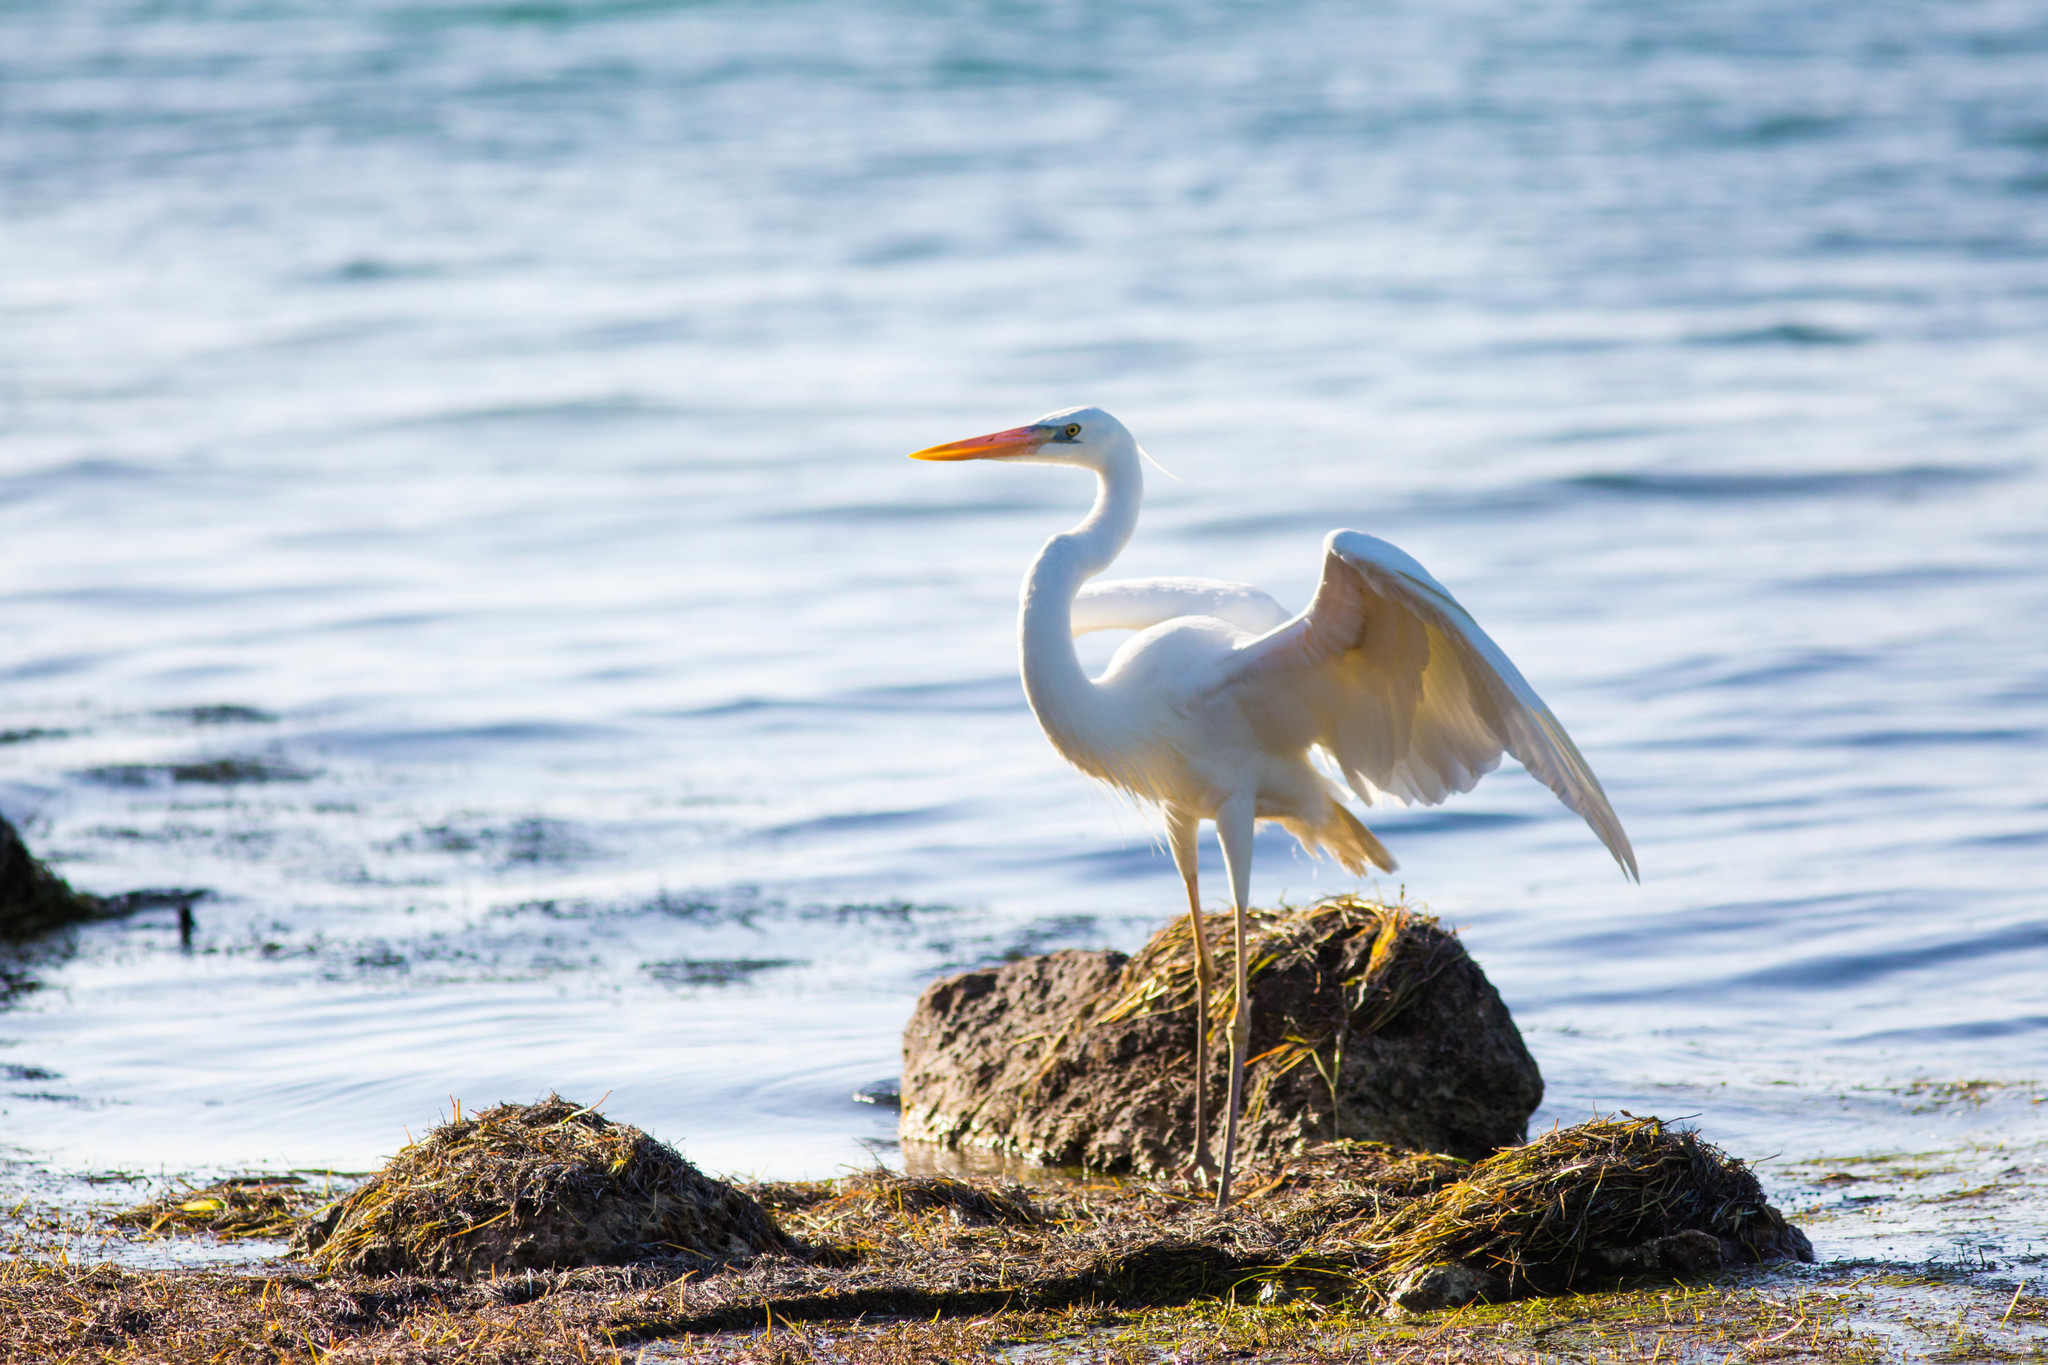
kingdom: Animalia
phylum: Chordata
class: Aves
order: Pelecaniformes
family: Ardeidae
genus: Ardea
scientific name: Ardea herodias
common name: Great blue heron
